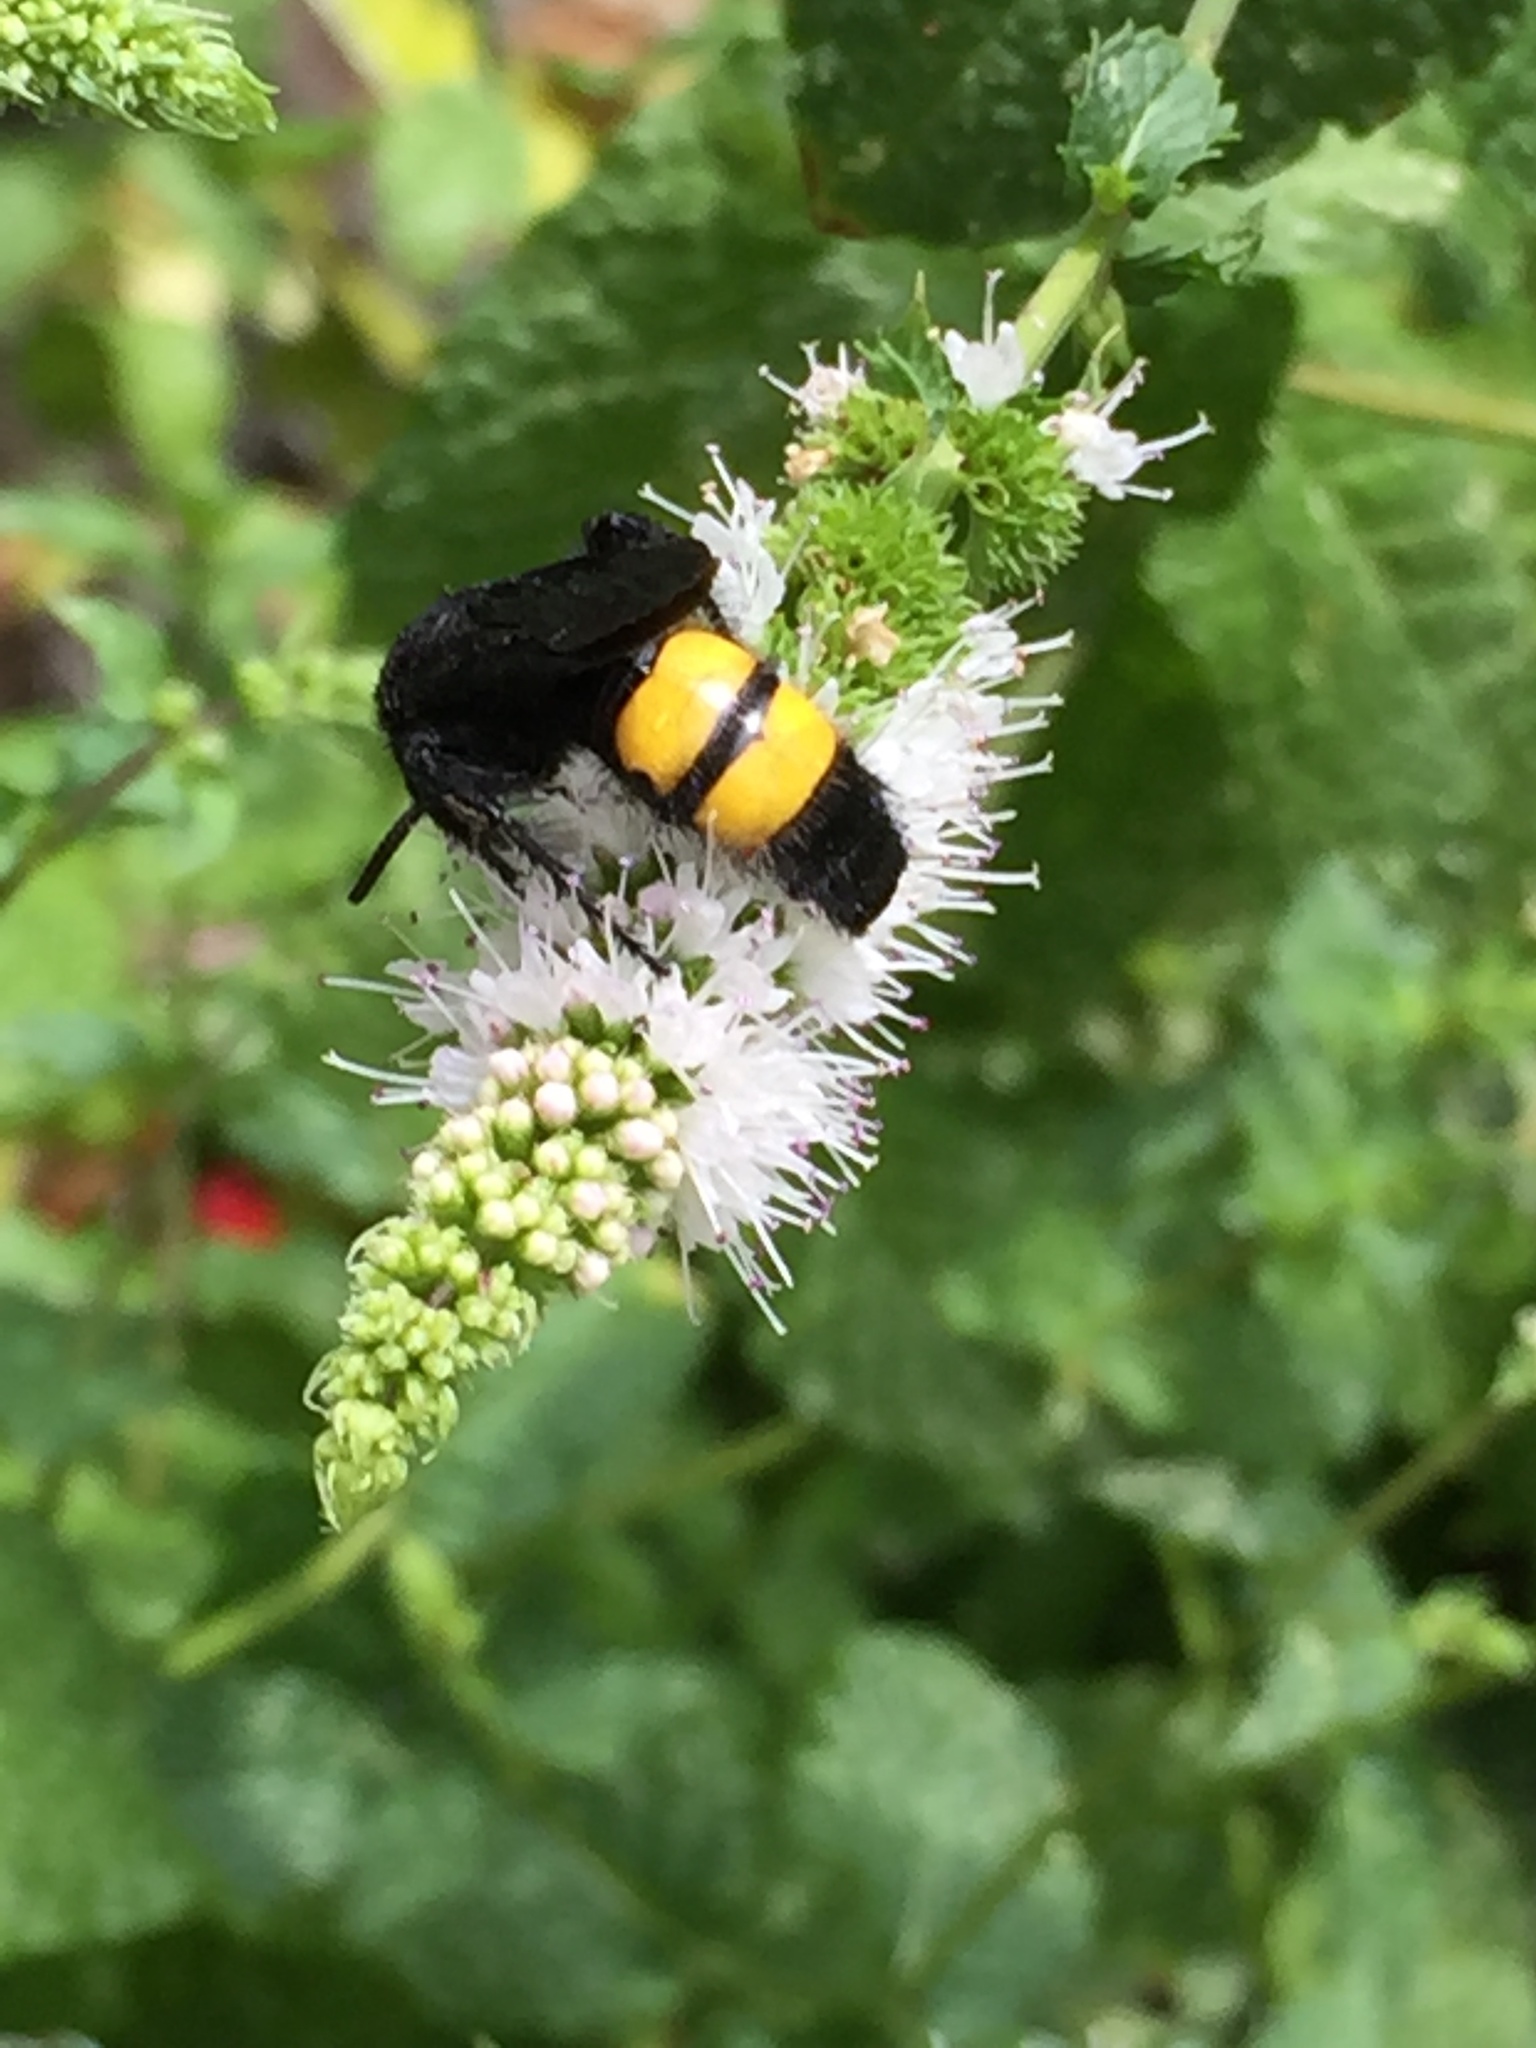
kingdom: Animalia
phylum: Arthropoda
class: Insecta
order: Hymenoptera
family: Scoliidae
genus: Scolia
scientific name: Scolia hirta
